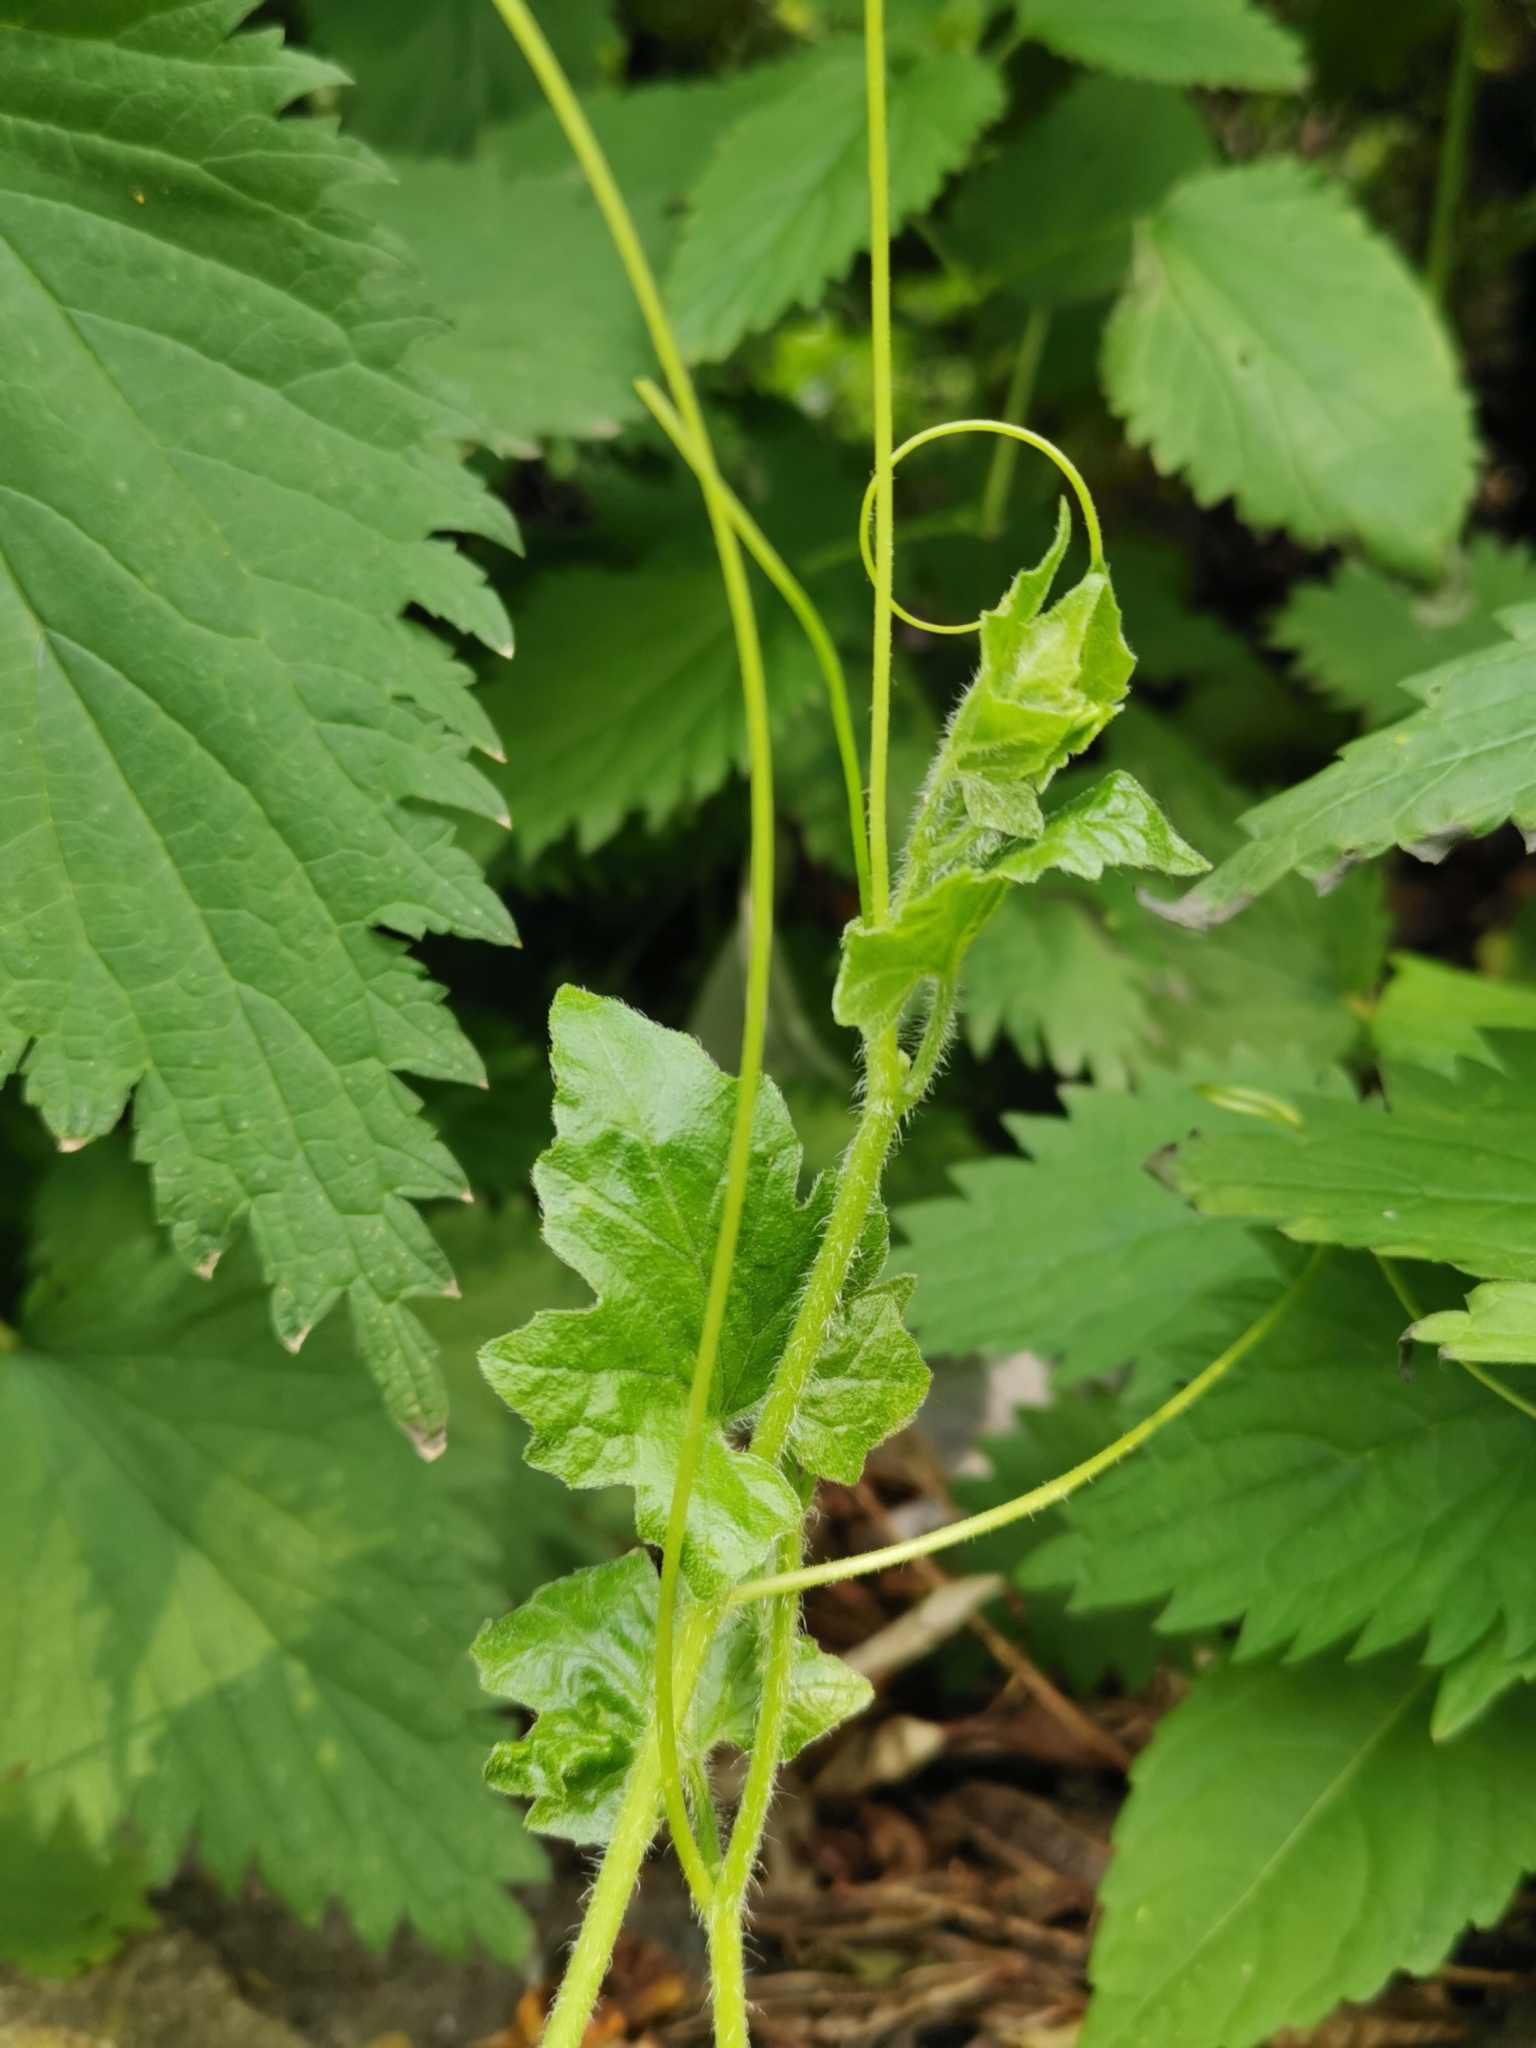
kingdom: Plantae
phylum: Tracheophyta
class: Magnoliopsida
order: Cucurbitales
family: Cucurbitaceae
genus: Bryonia
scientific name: Bryonia cretica
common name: Cretan bryony
